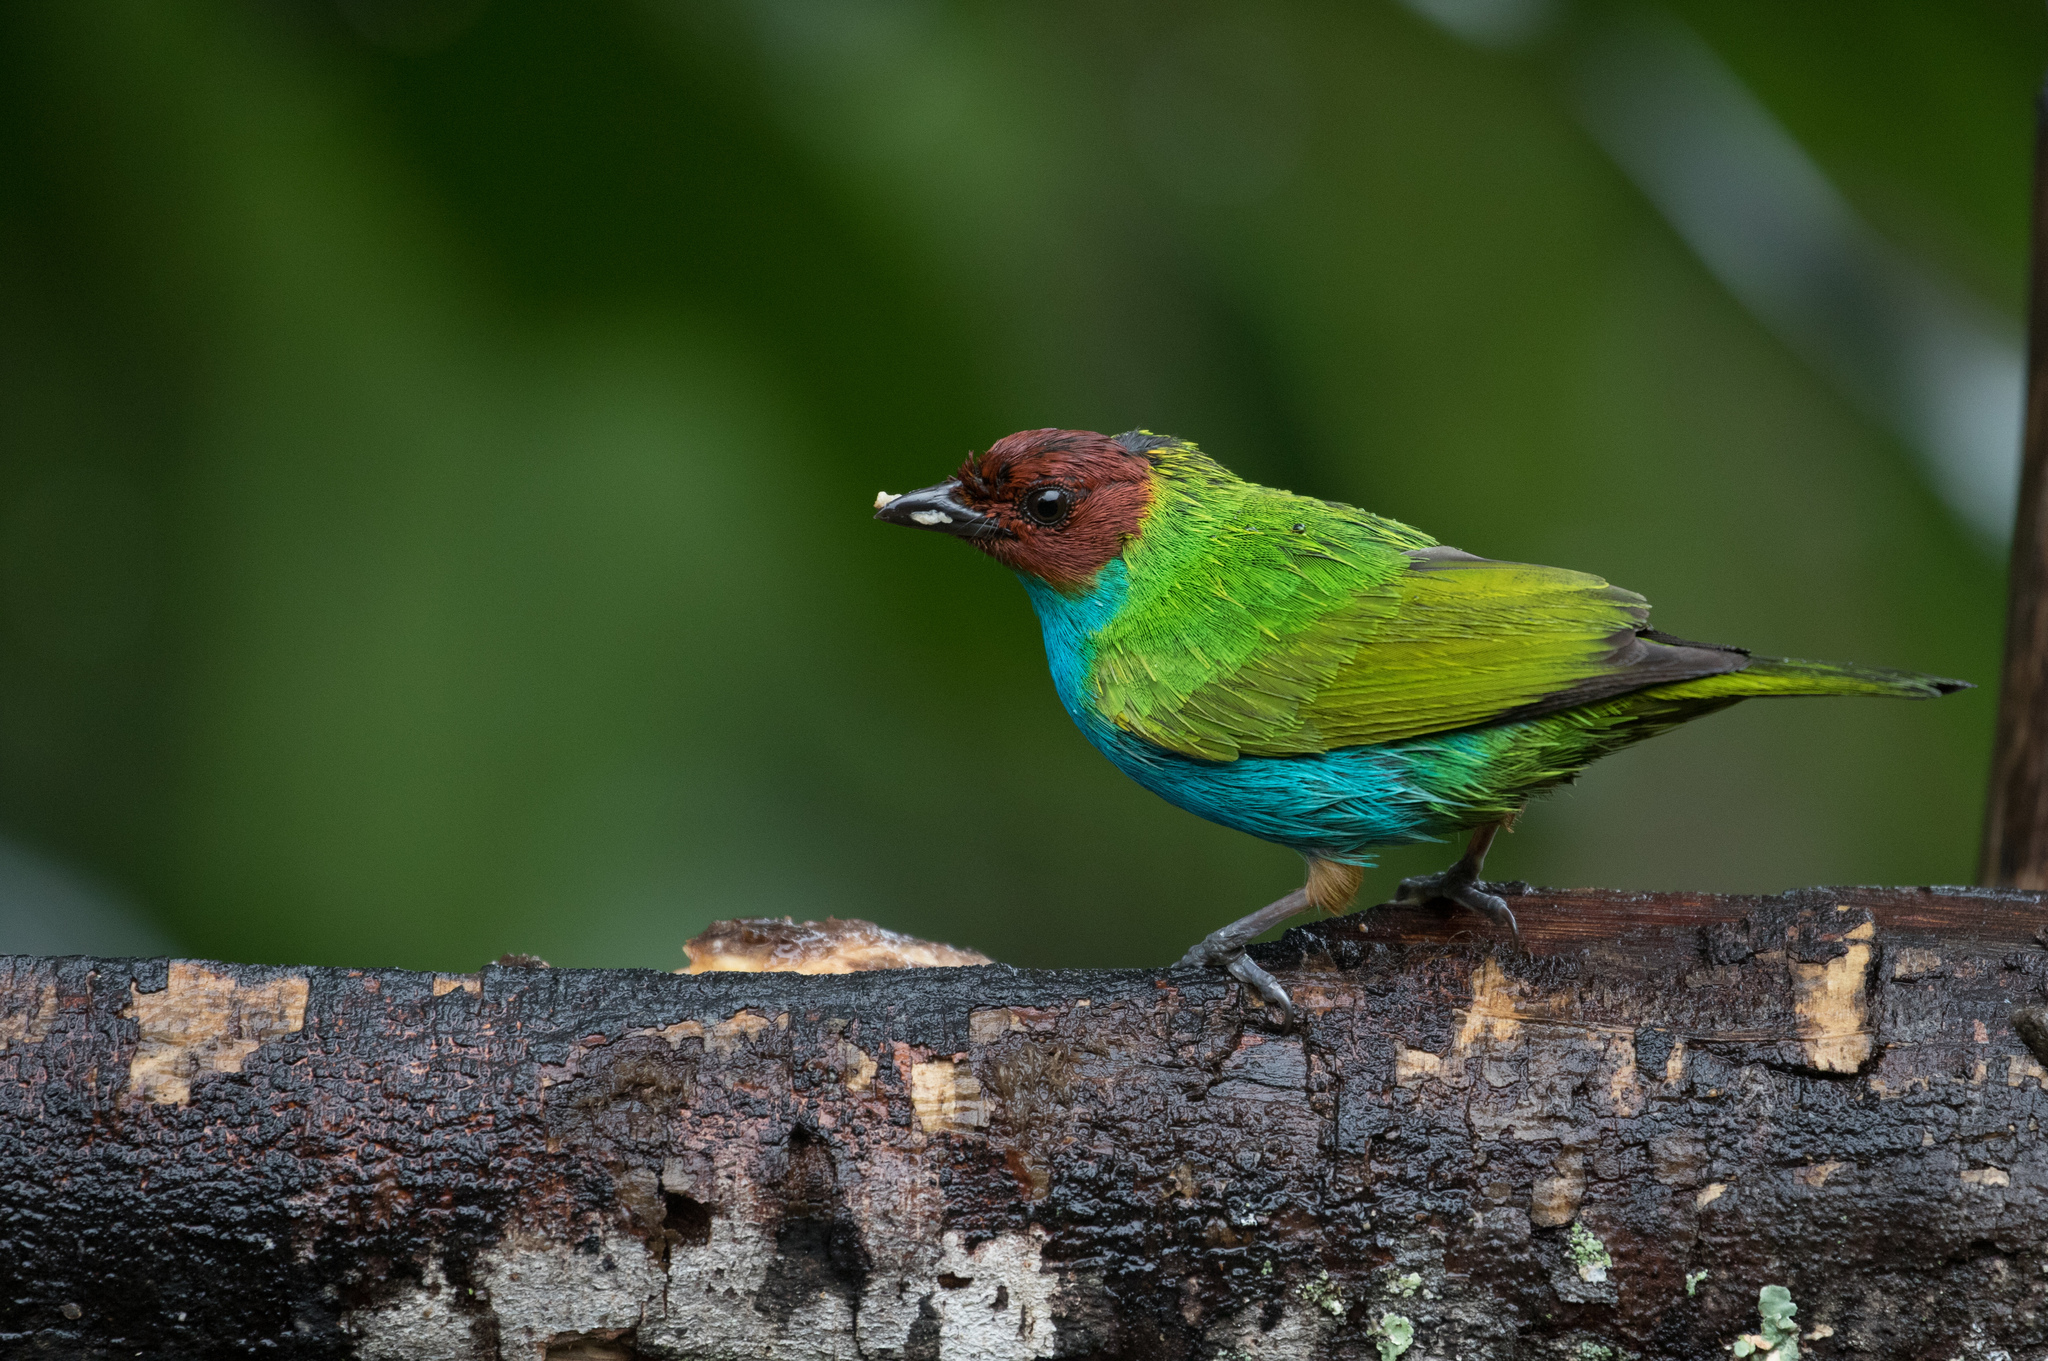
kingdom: Animalia
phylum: Chordata
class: Aves
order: Passeriformes
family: Thraupidae
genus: Tangara
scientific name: Tangara gyrola
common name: Bay-headed tanager
